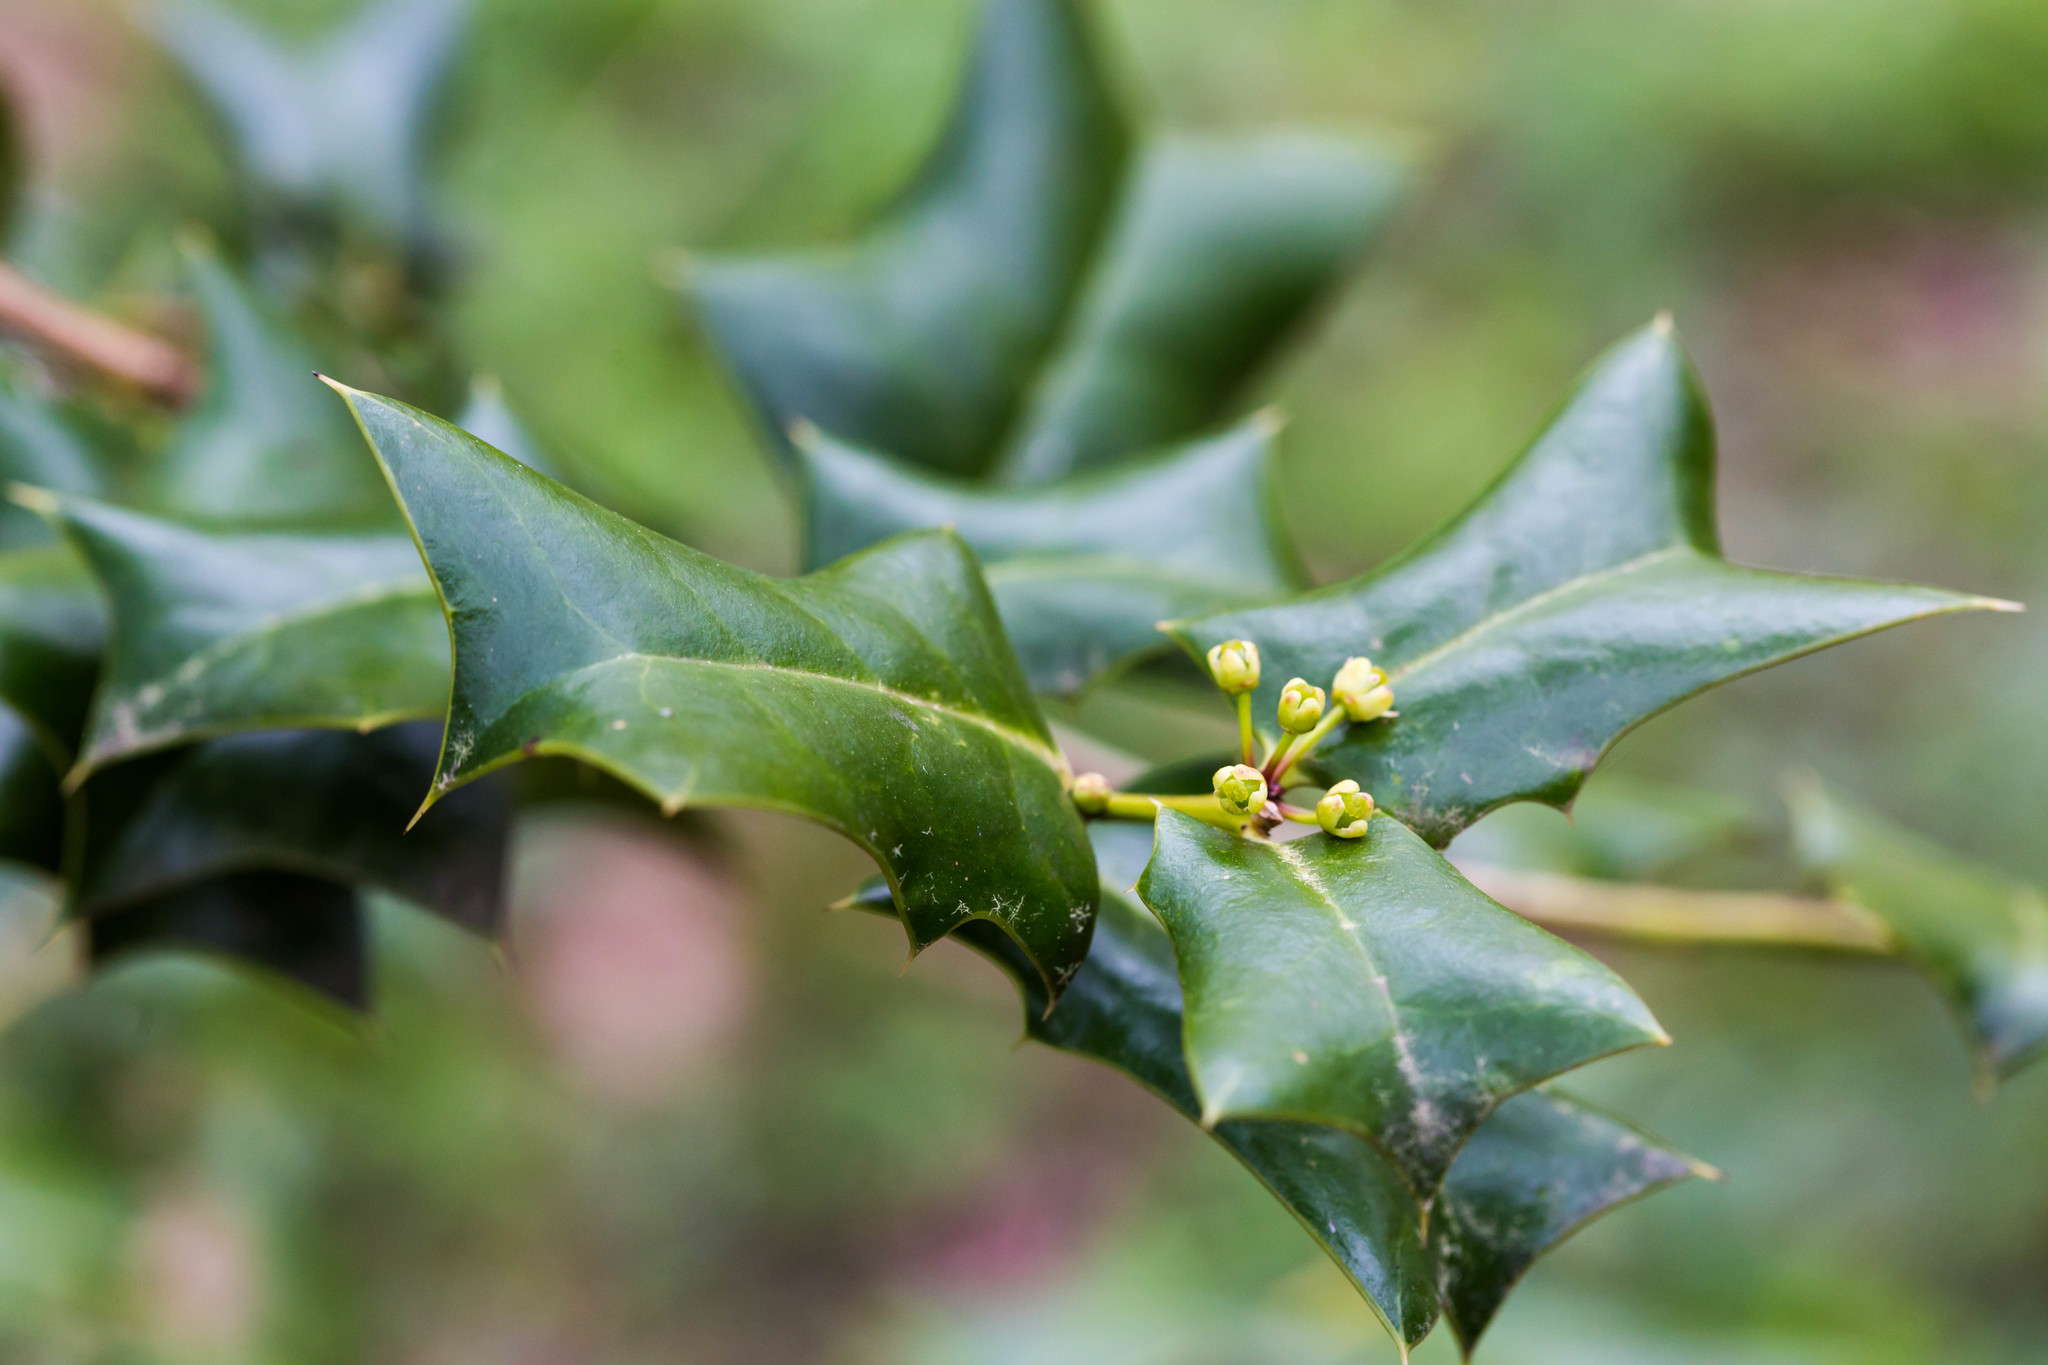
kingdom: Plantae
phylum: Tracheophyta
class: Magnoliopsida
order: Aquifoliales
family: Aquifoliaceae
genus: Ilex
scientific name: Ilex cornuta
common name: Chinese holly
